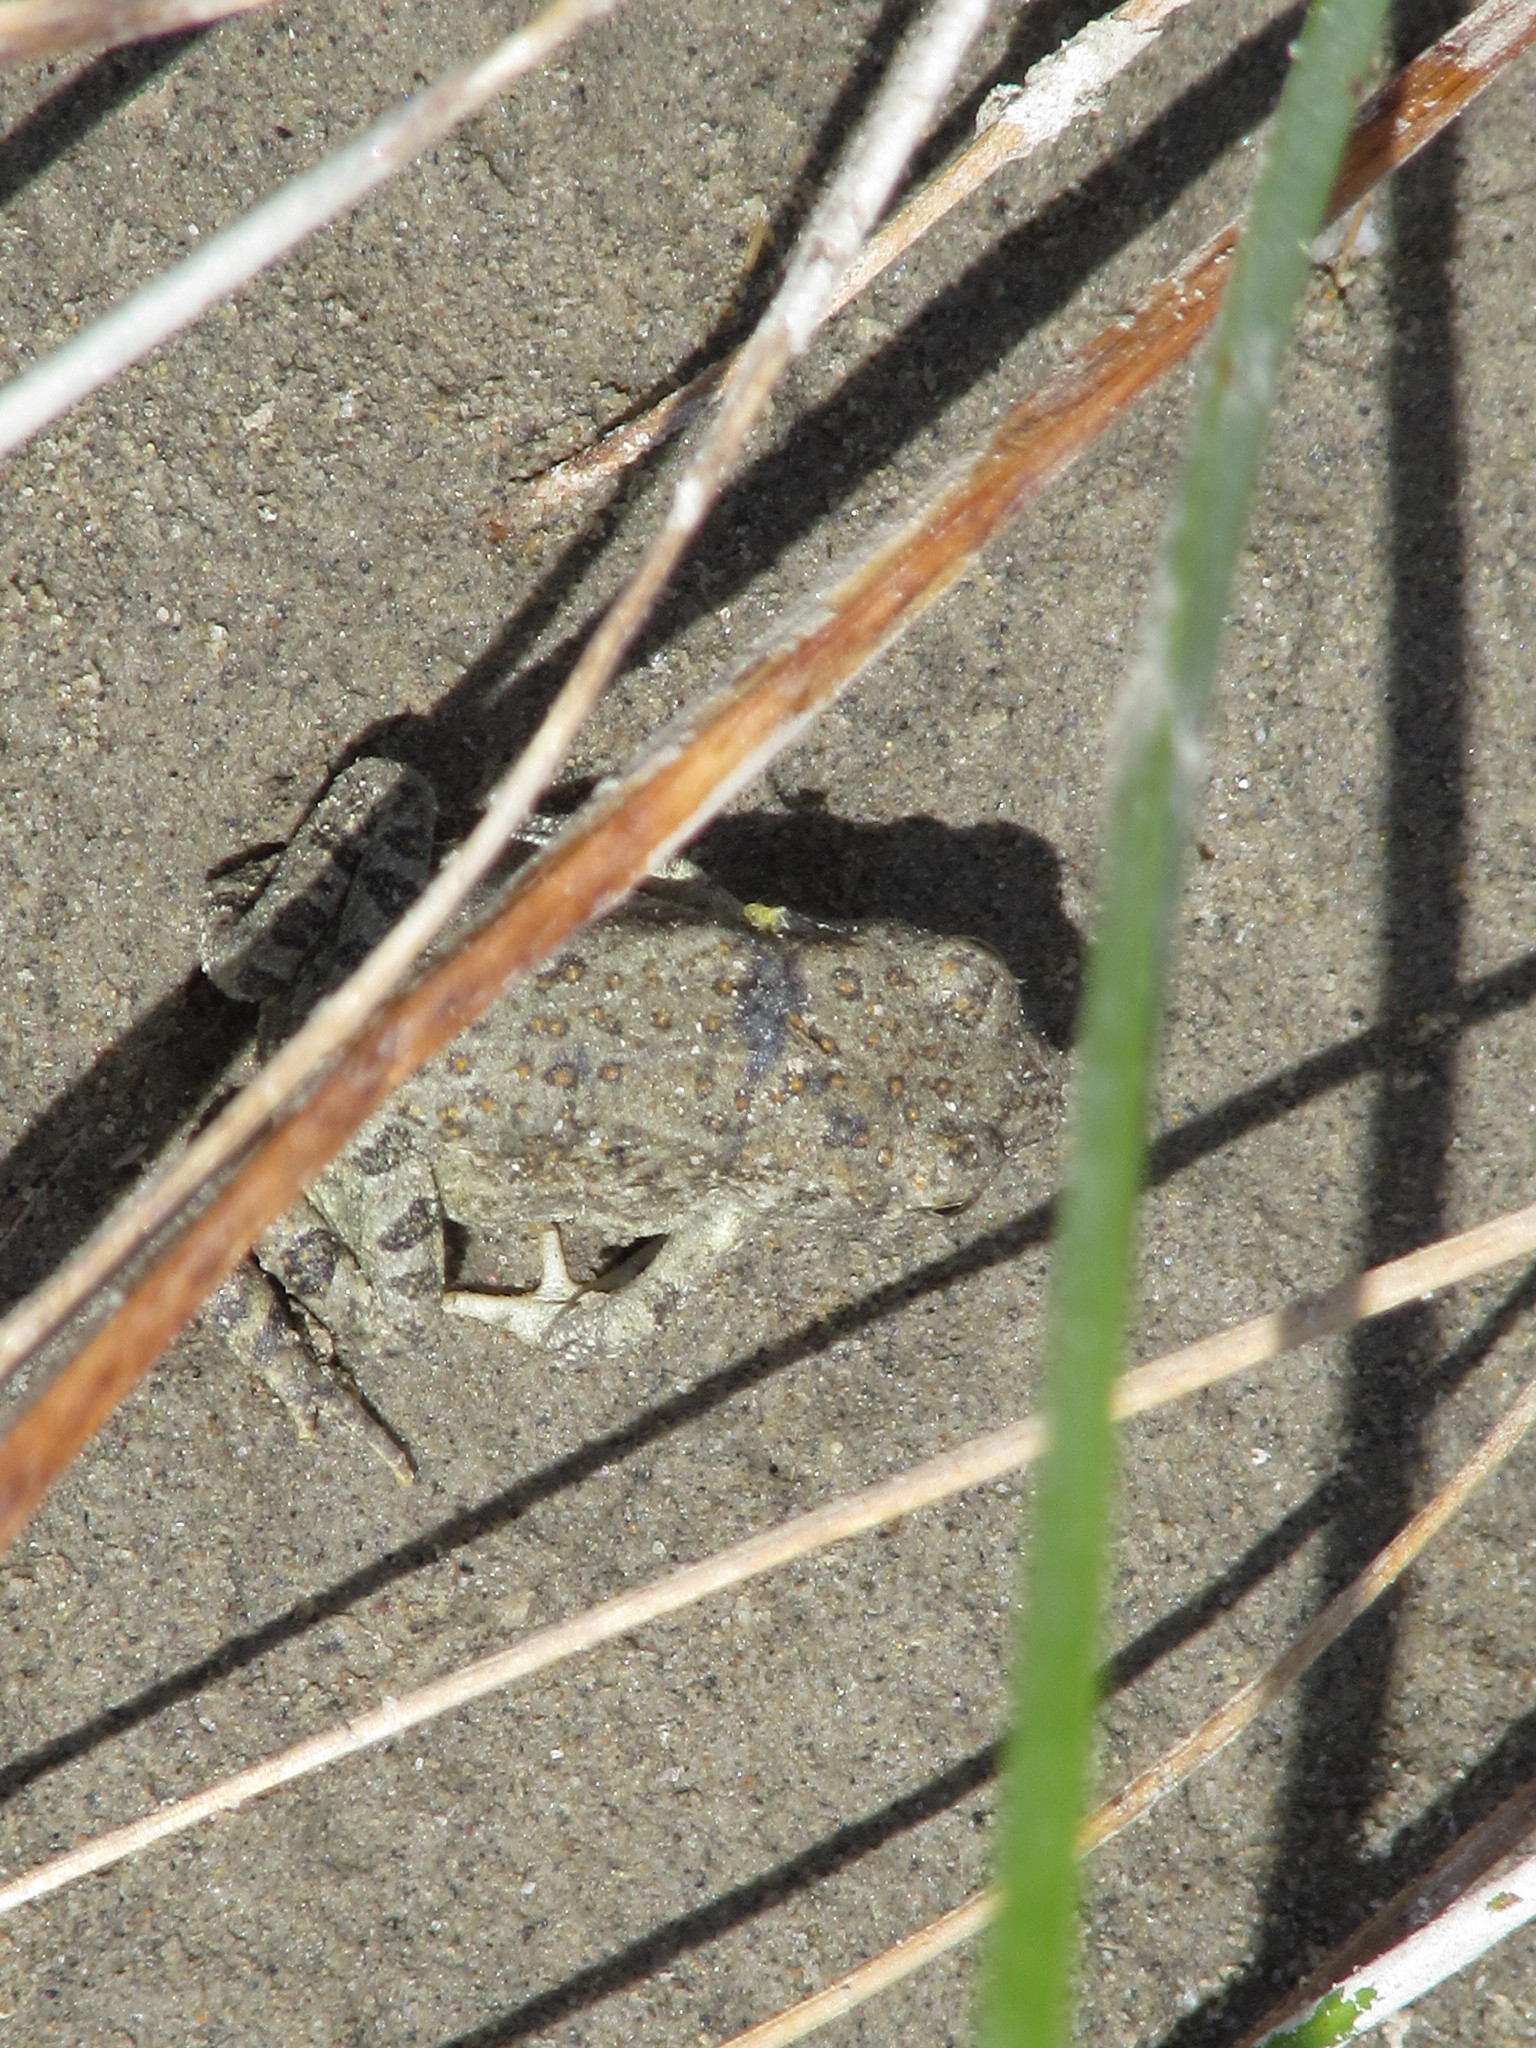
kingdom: Animalia
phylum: Chordata
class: Amphibia
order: Anura
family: Bufonidae
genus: Anaxyrus
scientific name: Anaxyrus woodhousii
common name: Woodhouse's toad
